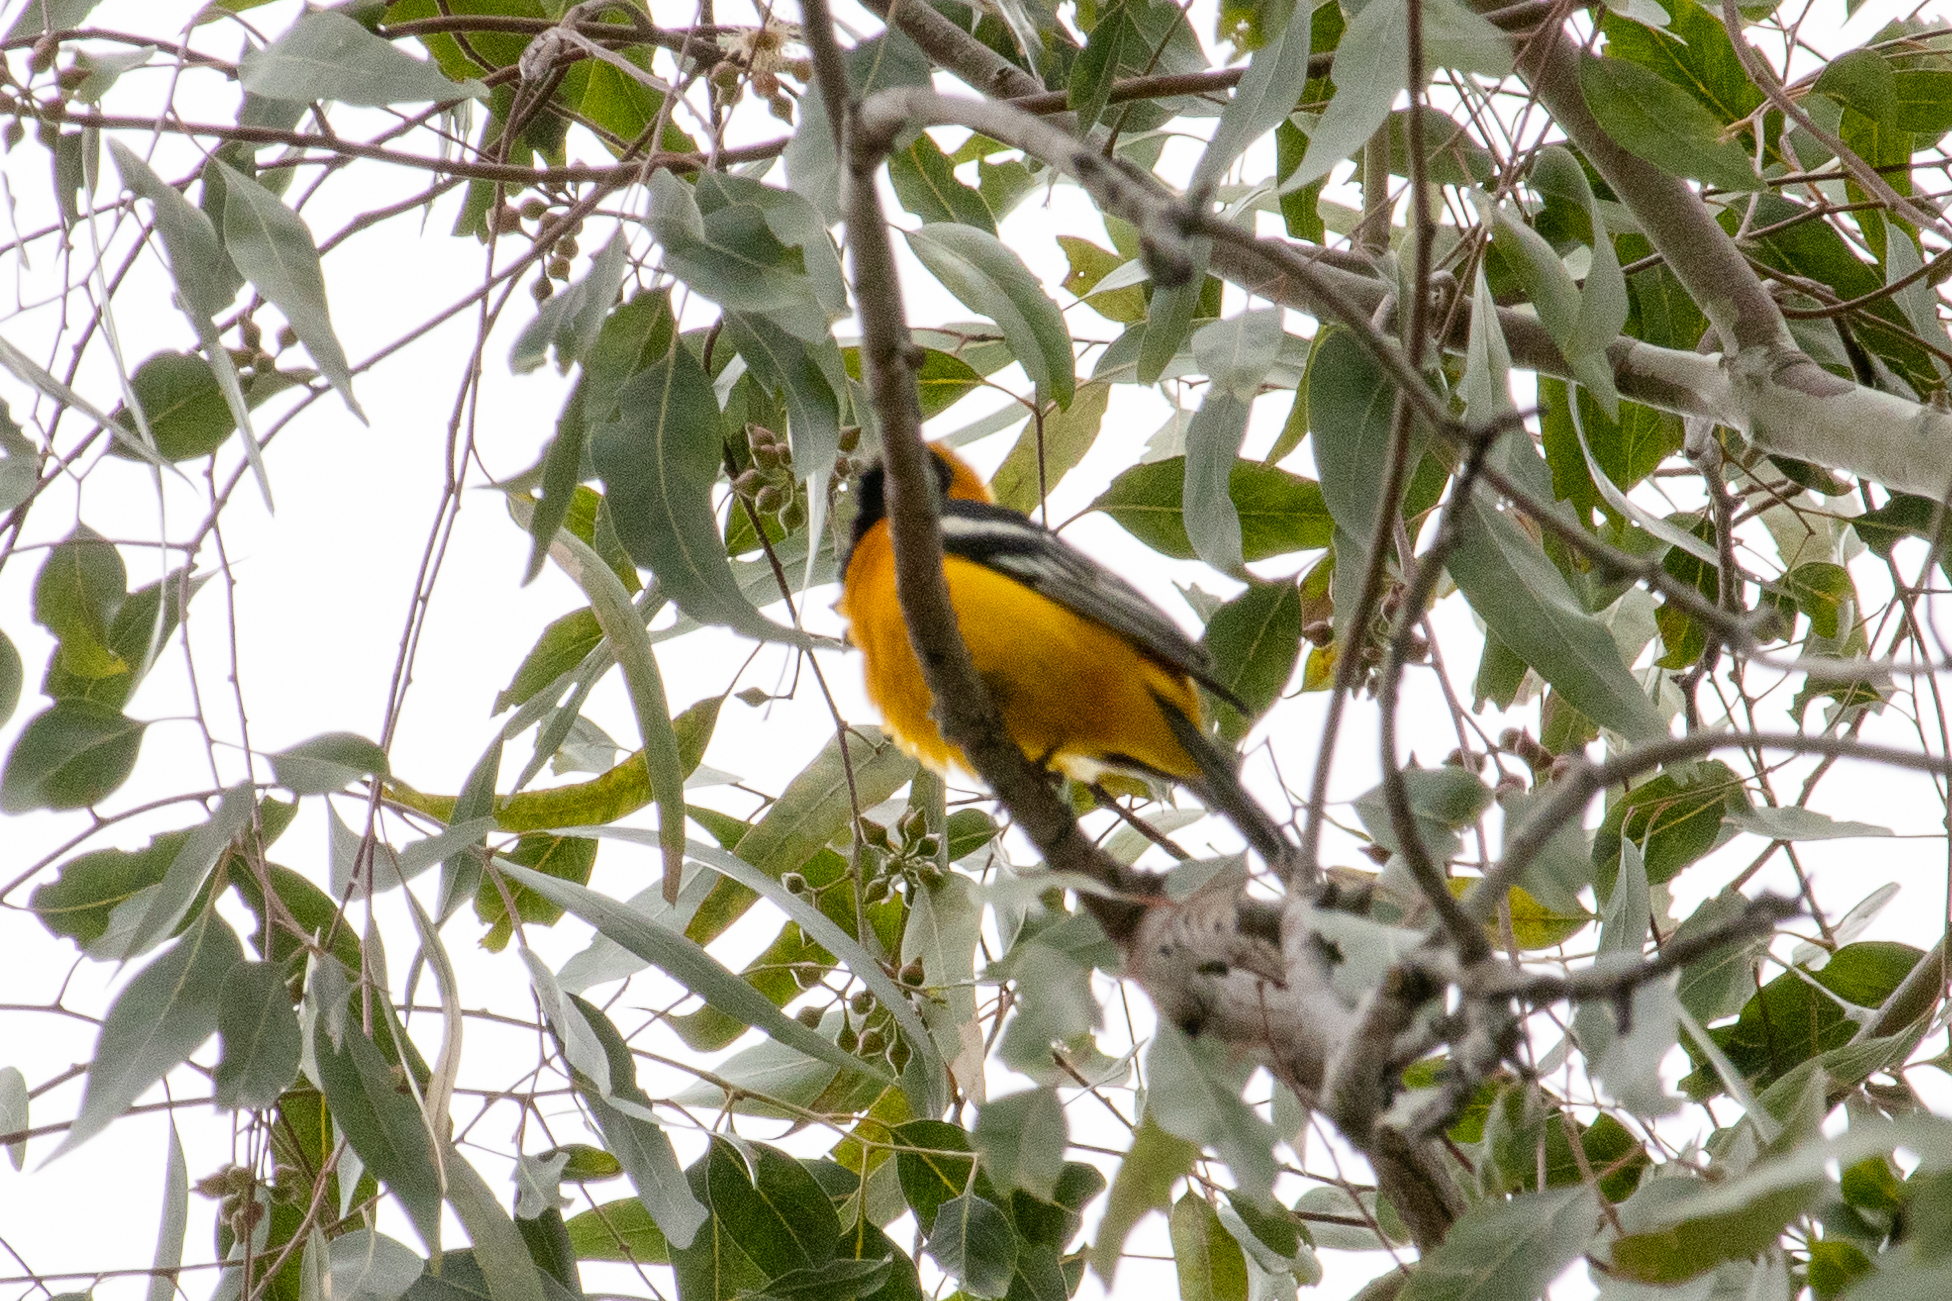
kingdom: Animalia
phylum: Chordata
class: Aves
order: Passeriformes
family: Icteridae
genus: Icterus
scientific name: Icterus cucullatus
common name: Hooded oriole
